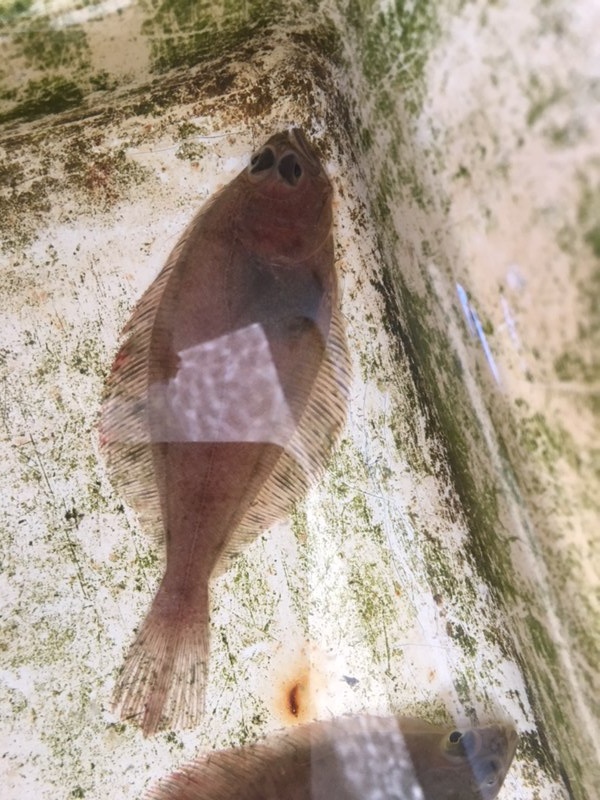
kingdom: Animalia
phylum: Chordata
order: Pleuronectiformes
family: Pleuronectidae
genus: Lyopsetta
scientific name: Lyopsetta exilis
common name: Slender sole
